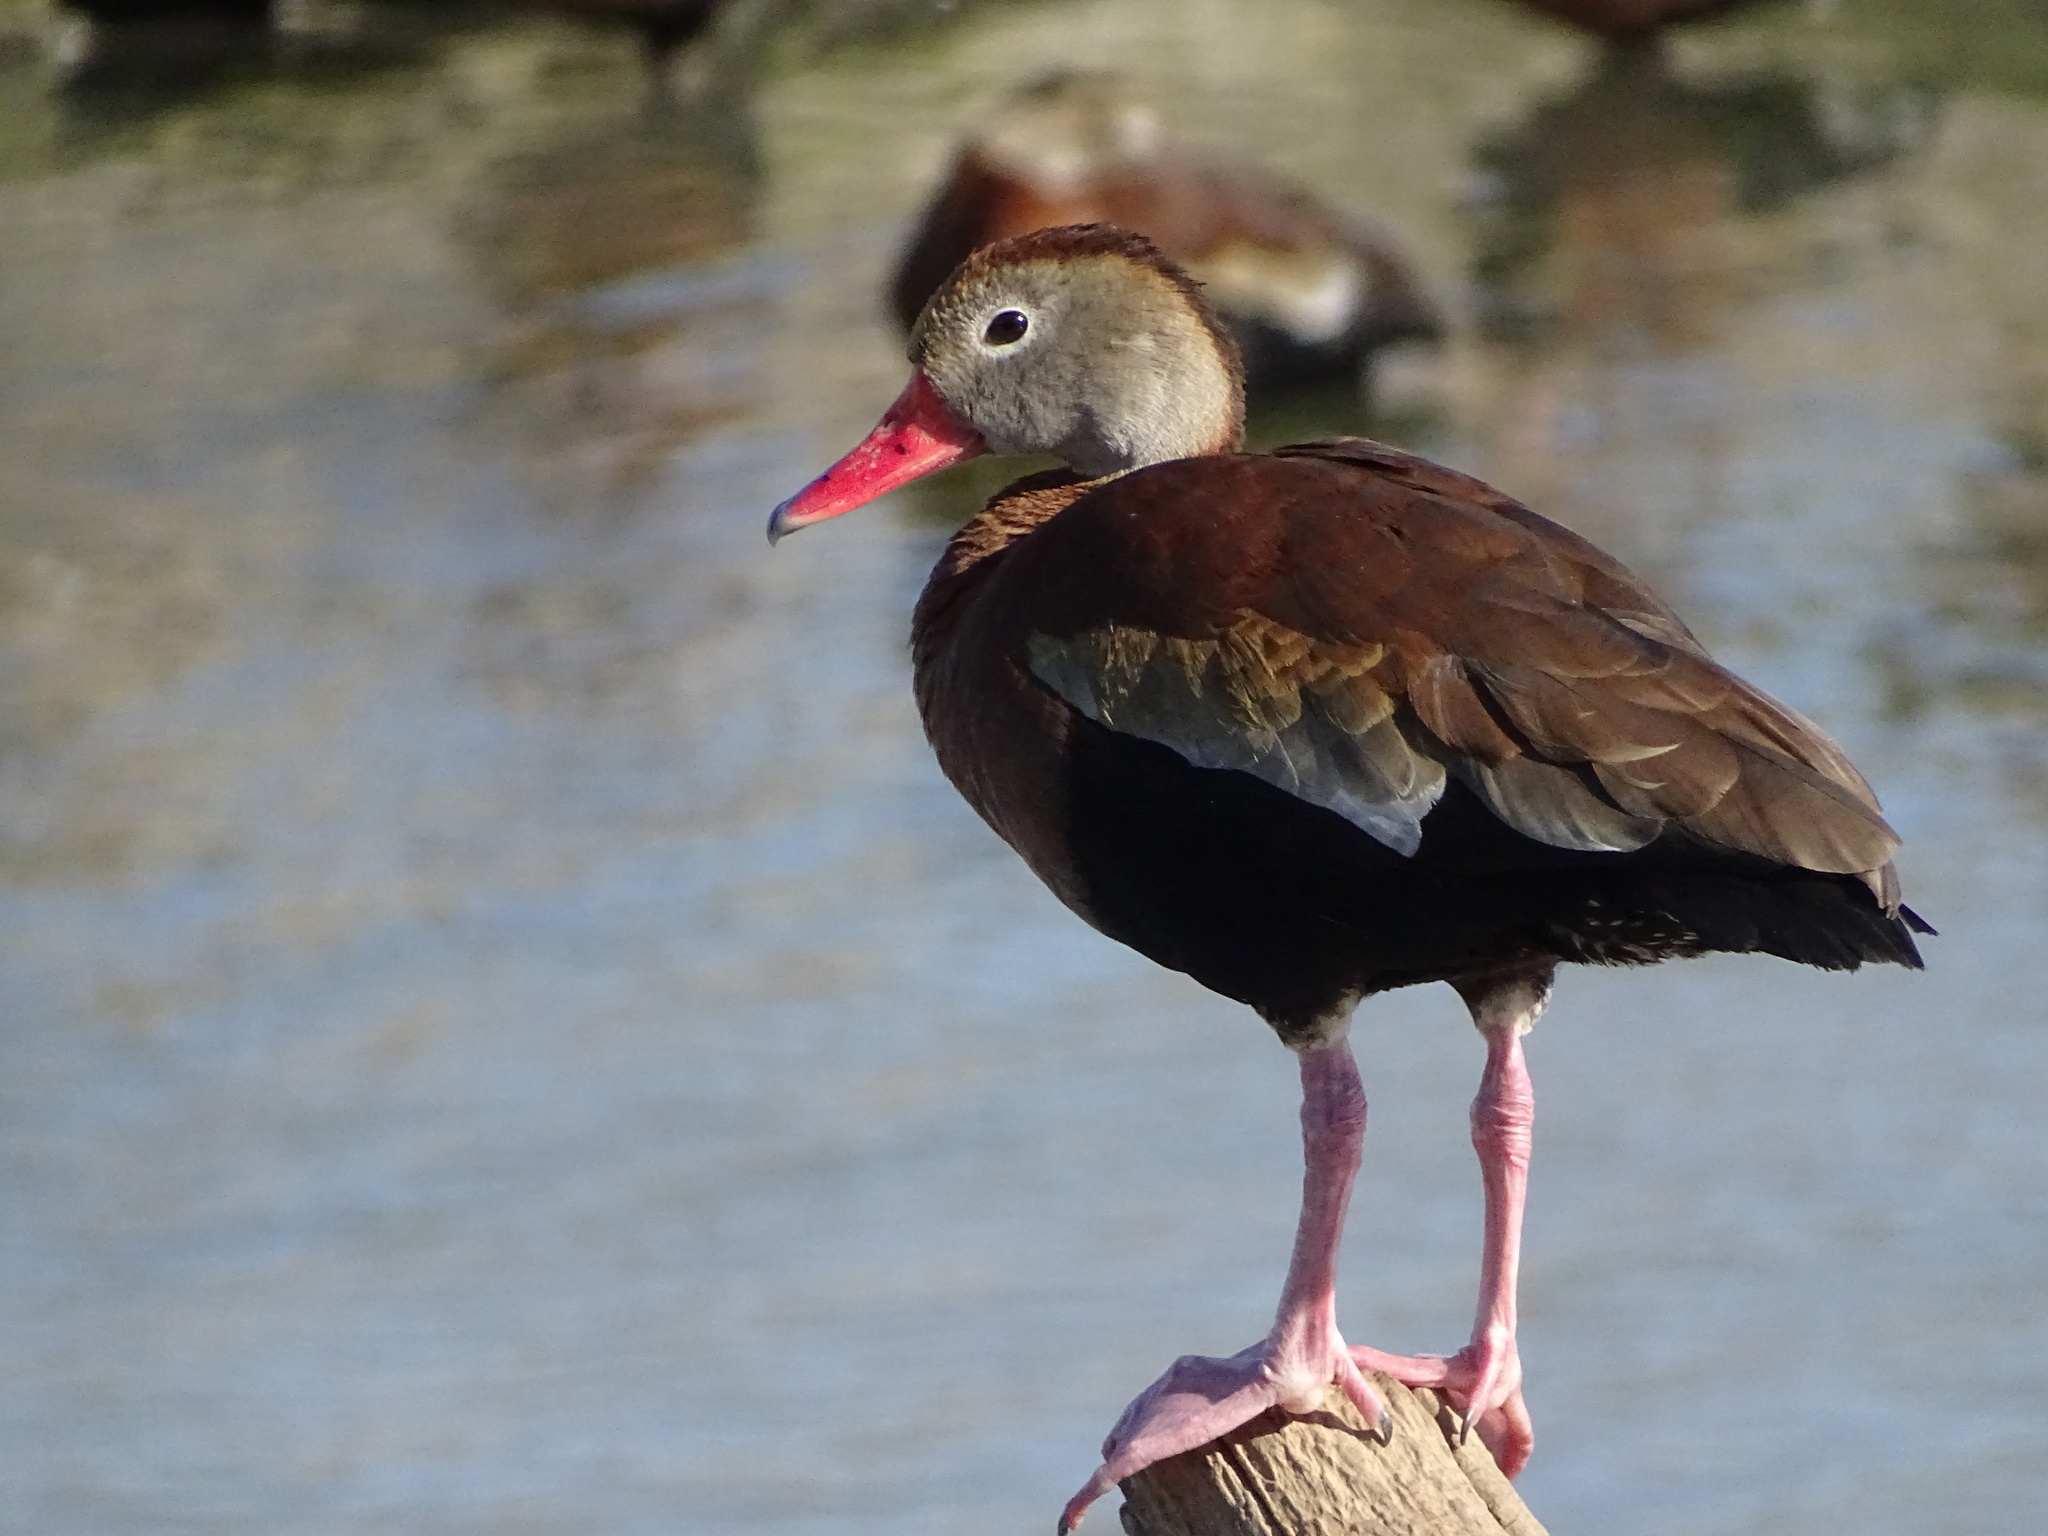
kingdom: Animalia
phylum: Chordata
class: Aves
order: Anseriformes
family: Anatidae
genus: Dendrocygna
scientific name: Dendrocygna autumnalis
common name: Black-bellied whistling duck
